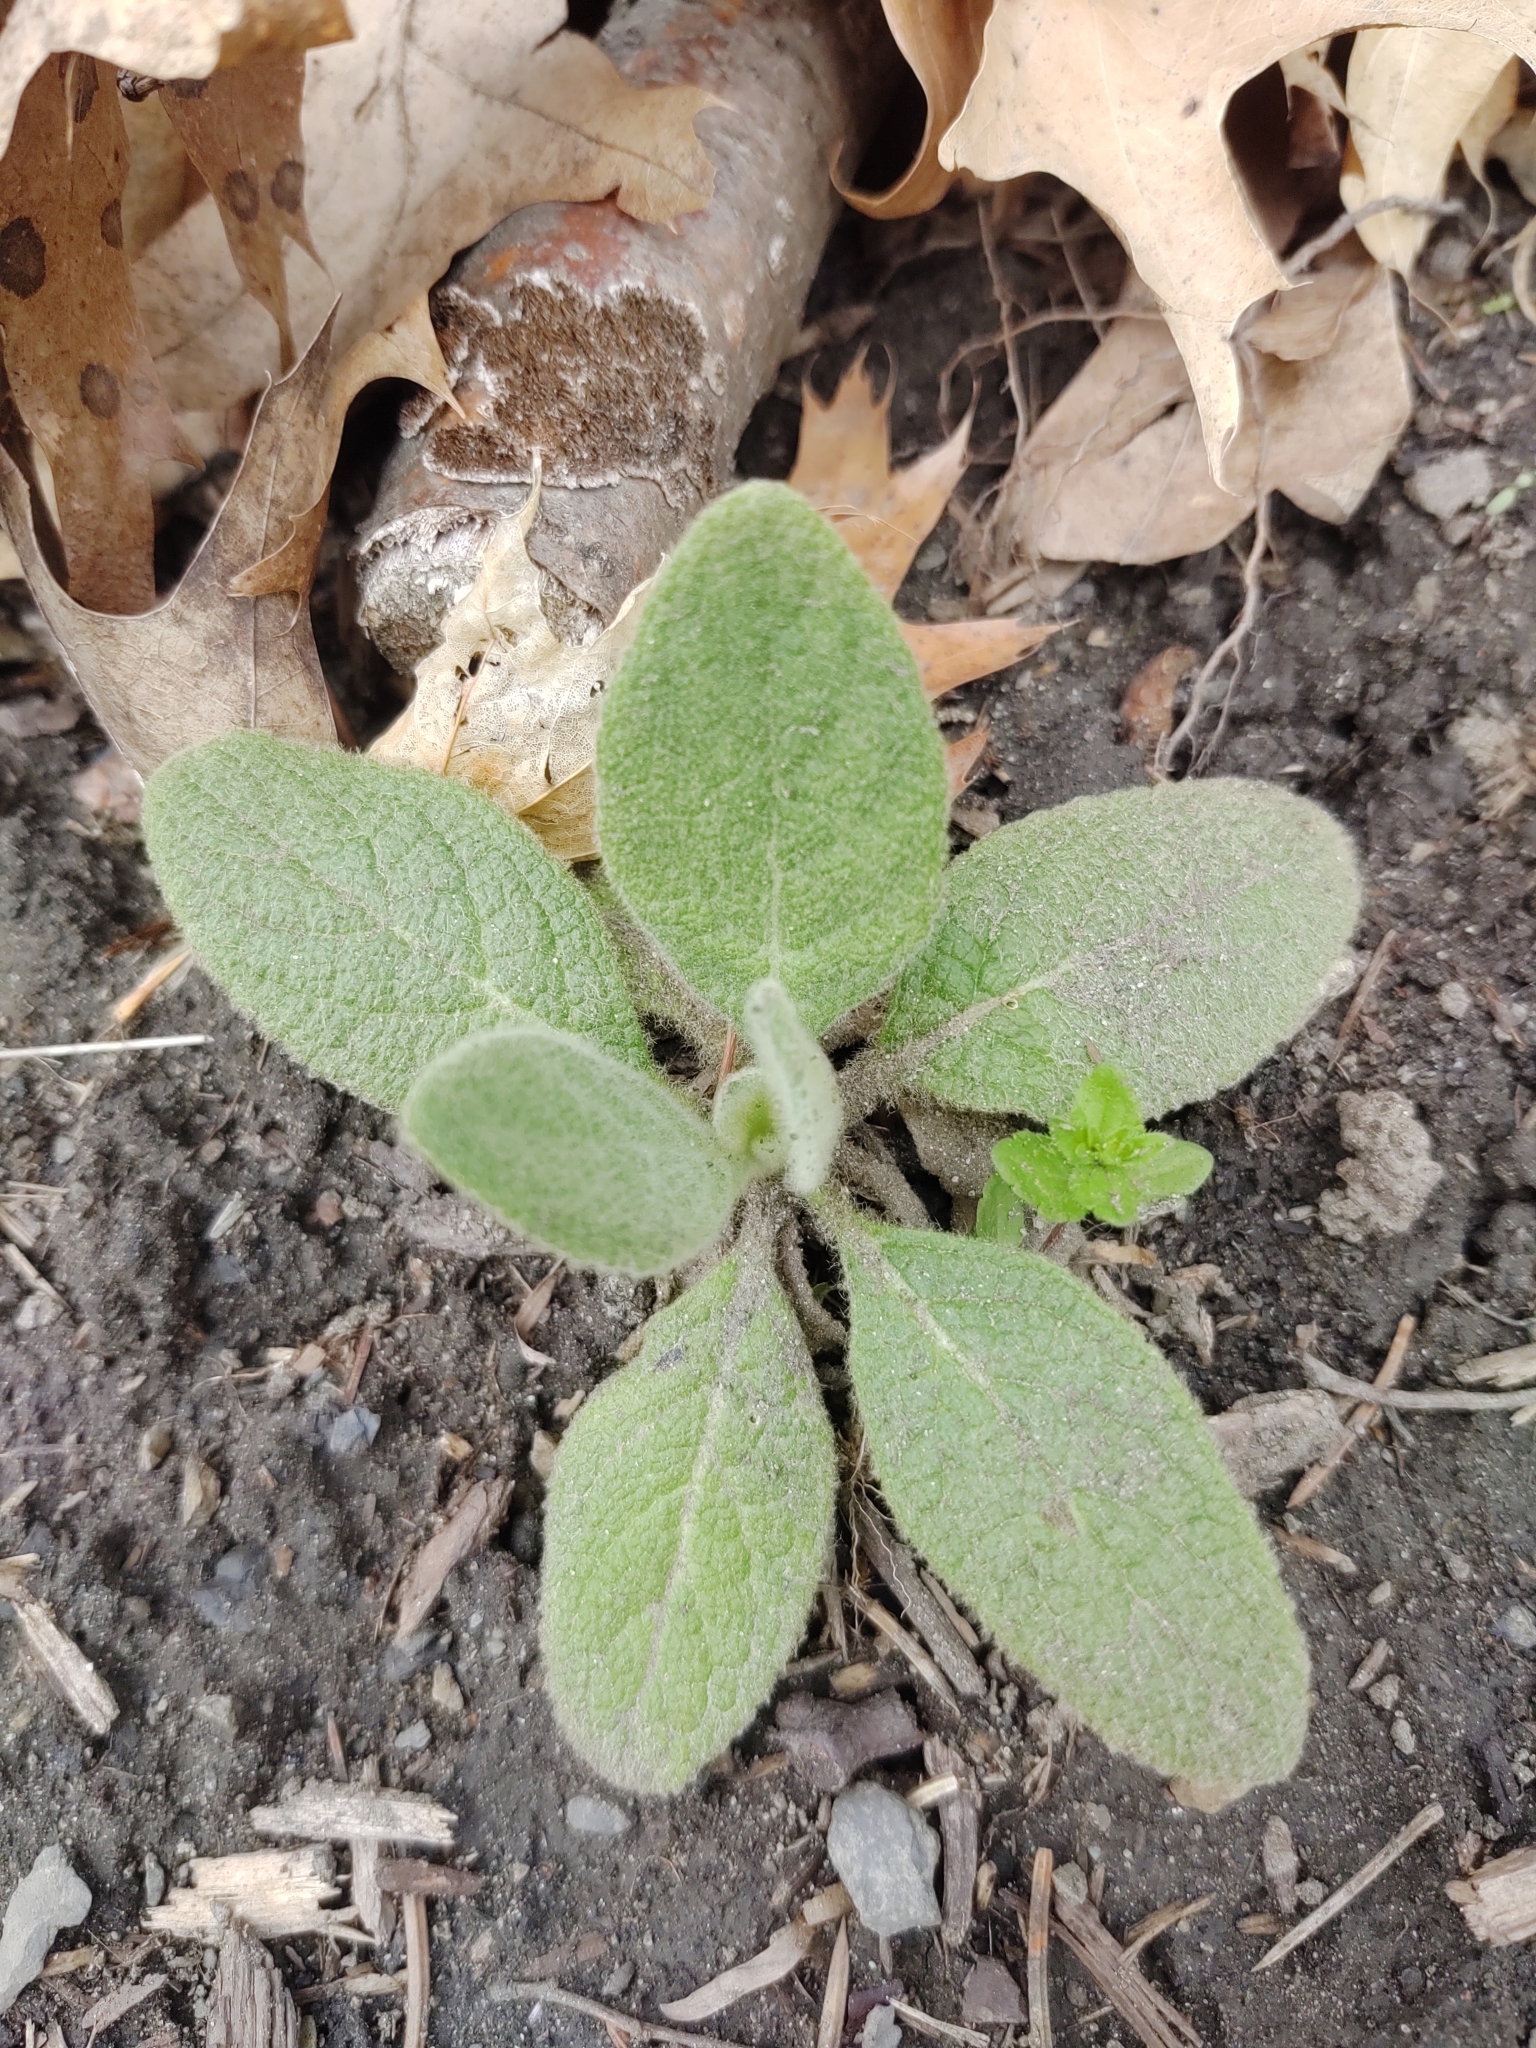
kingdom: Plantae
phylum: Tracheophyta
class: Magnoliopsida
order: Lamiales
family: Scrophulariaceae
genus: Verbascum
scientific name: Verbascum thapsus
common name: Common mullein
